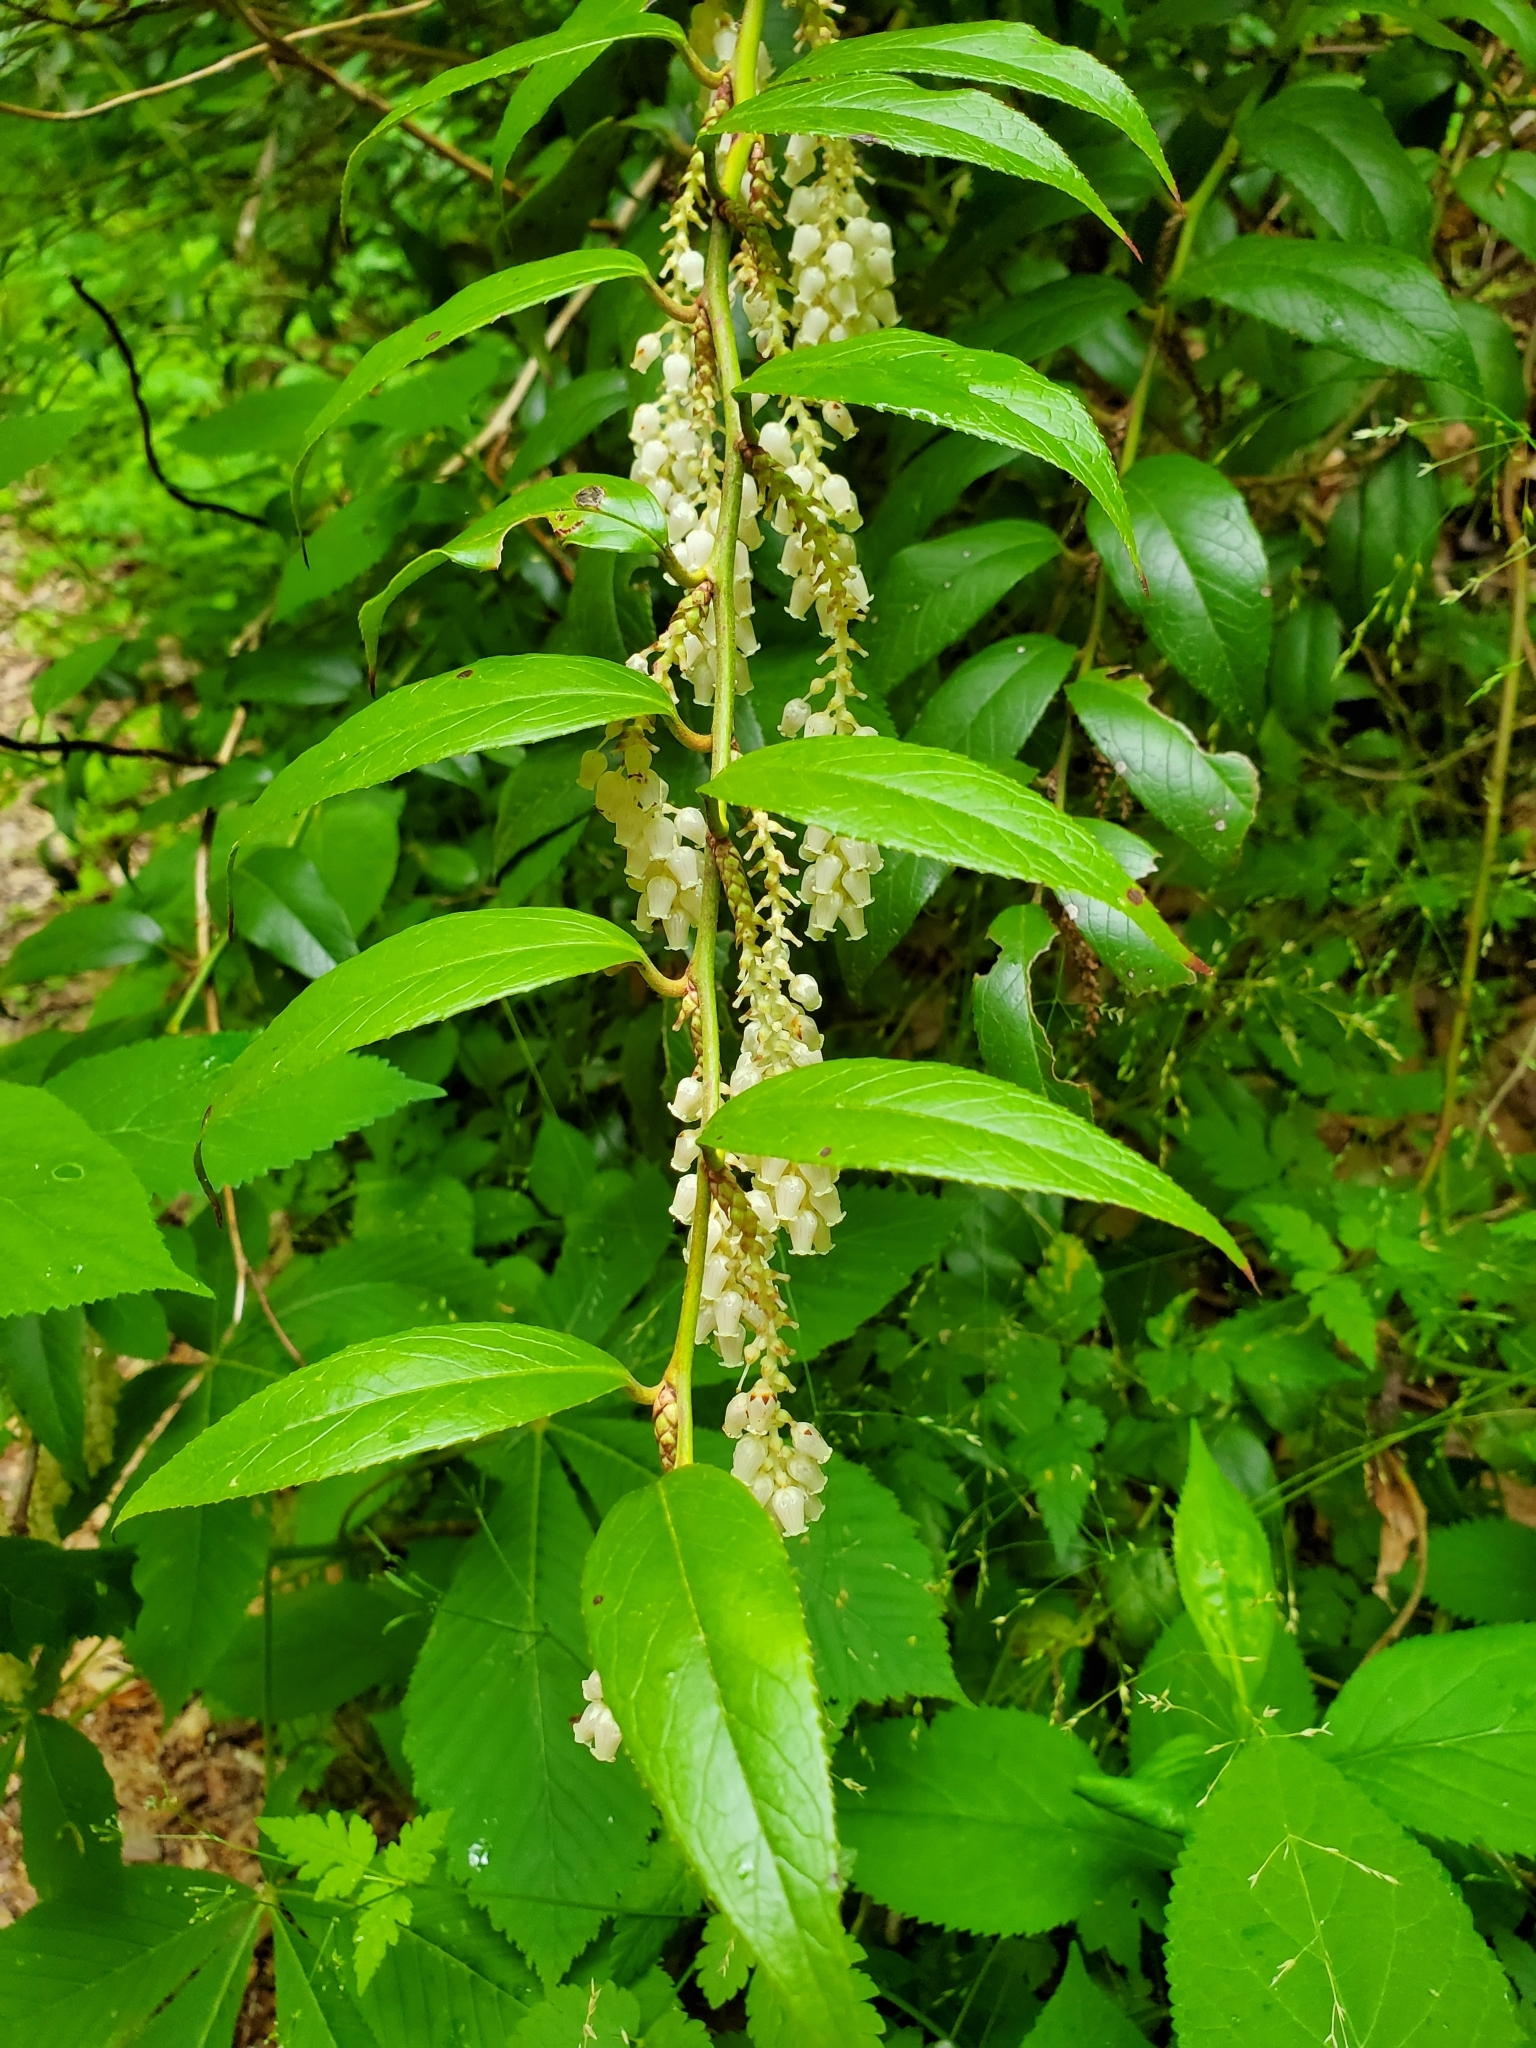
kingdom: Plantae
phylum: Tracheophyta
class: Magnoliopsida
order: Ericales
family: Ericaceae
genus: Leucothoe
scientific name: Leucothoe fontanesiana
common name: Fetterbush
